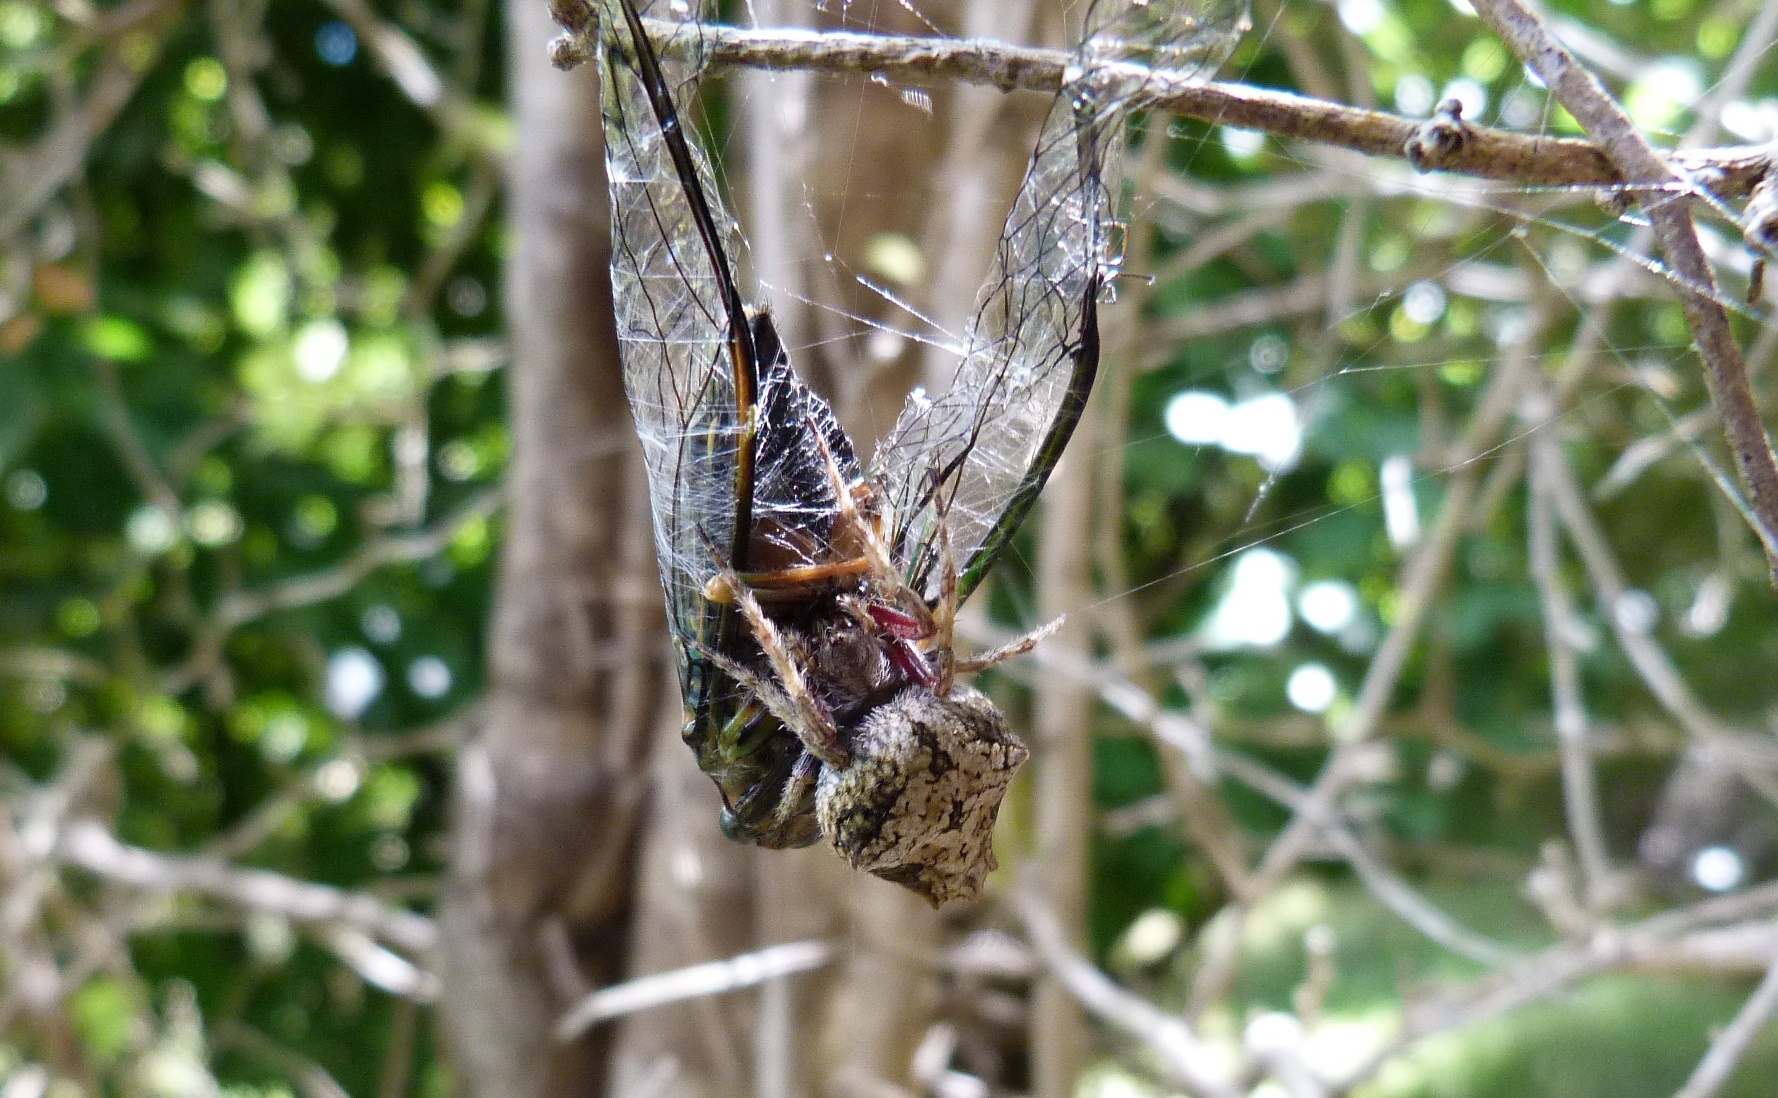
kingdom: Animalia
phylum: Arthropoda
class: Arachnida
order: Araneae
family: Araneidae
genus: Eriophora
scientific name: Eriophora pustulosa
